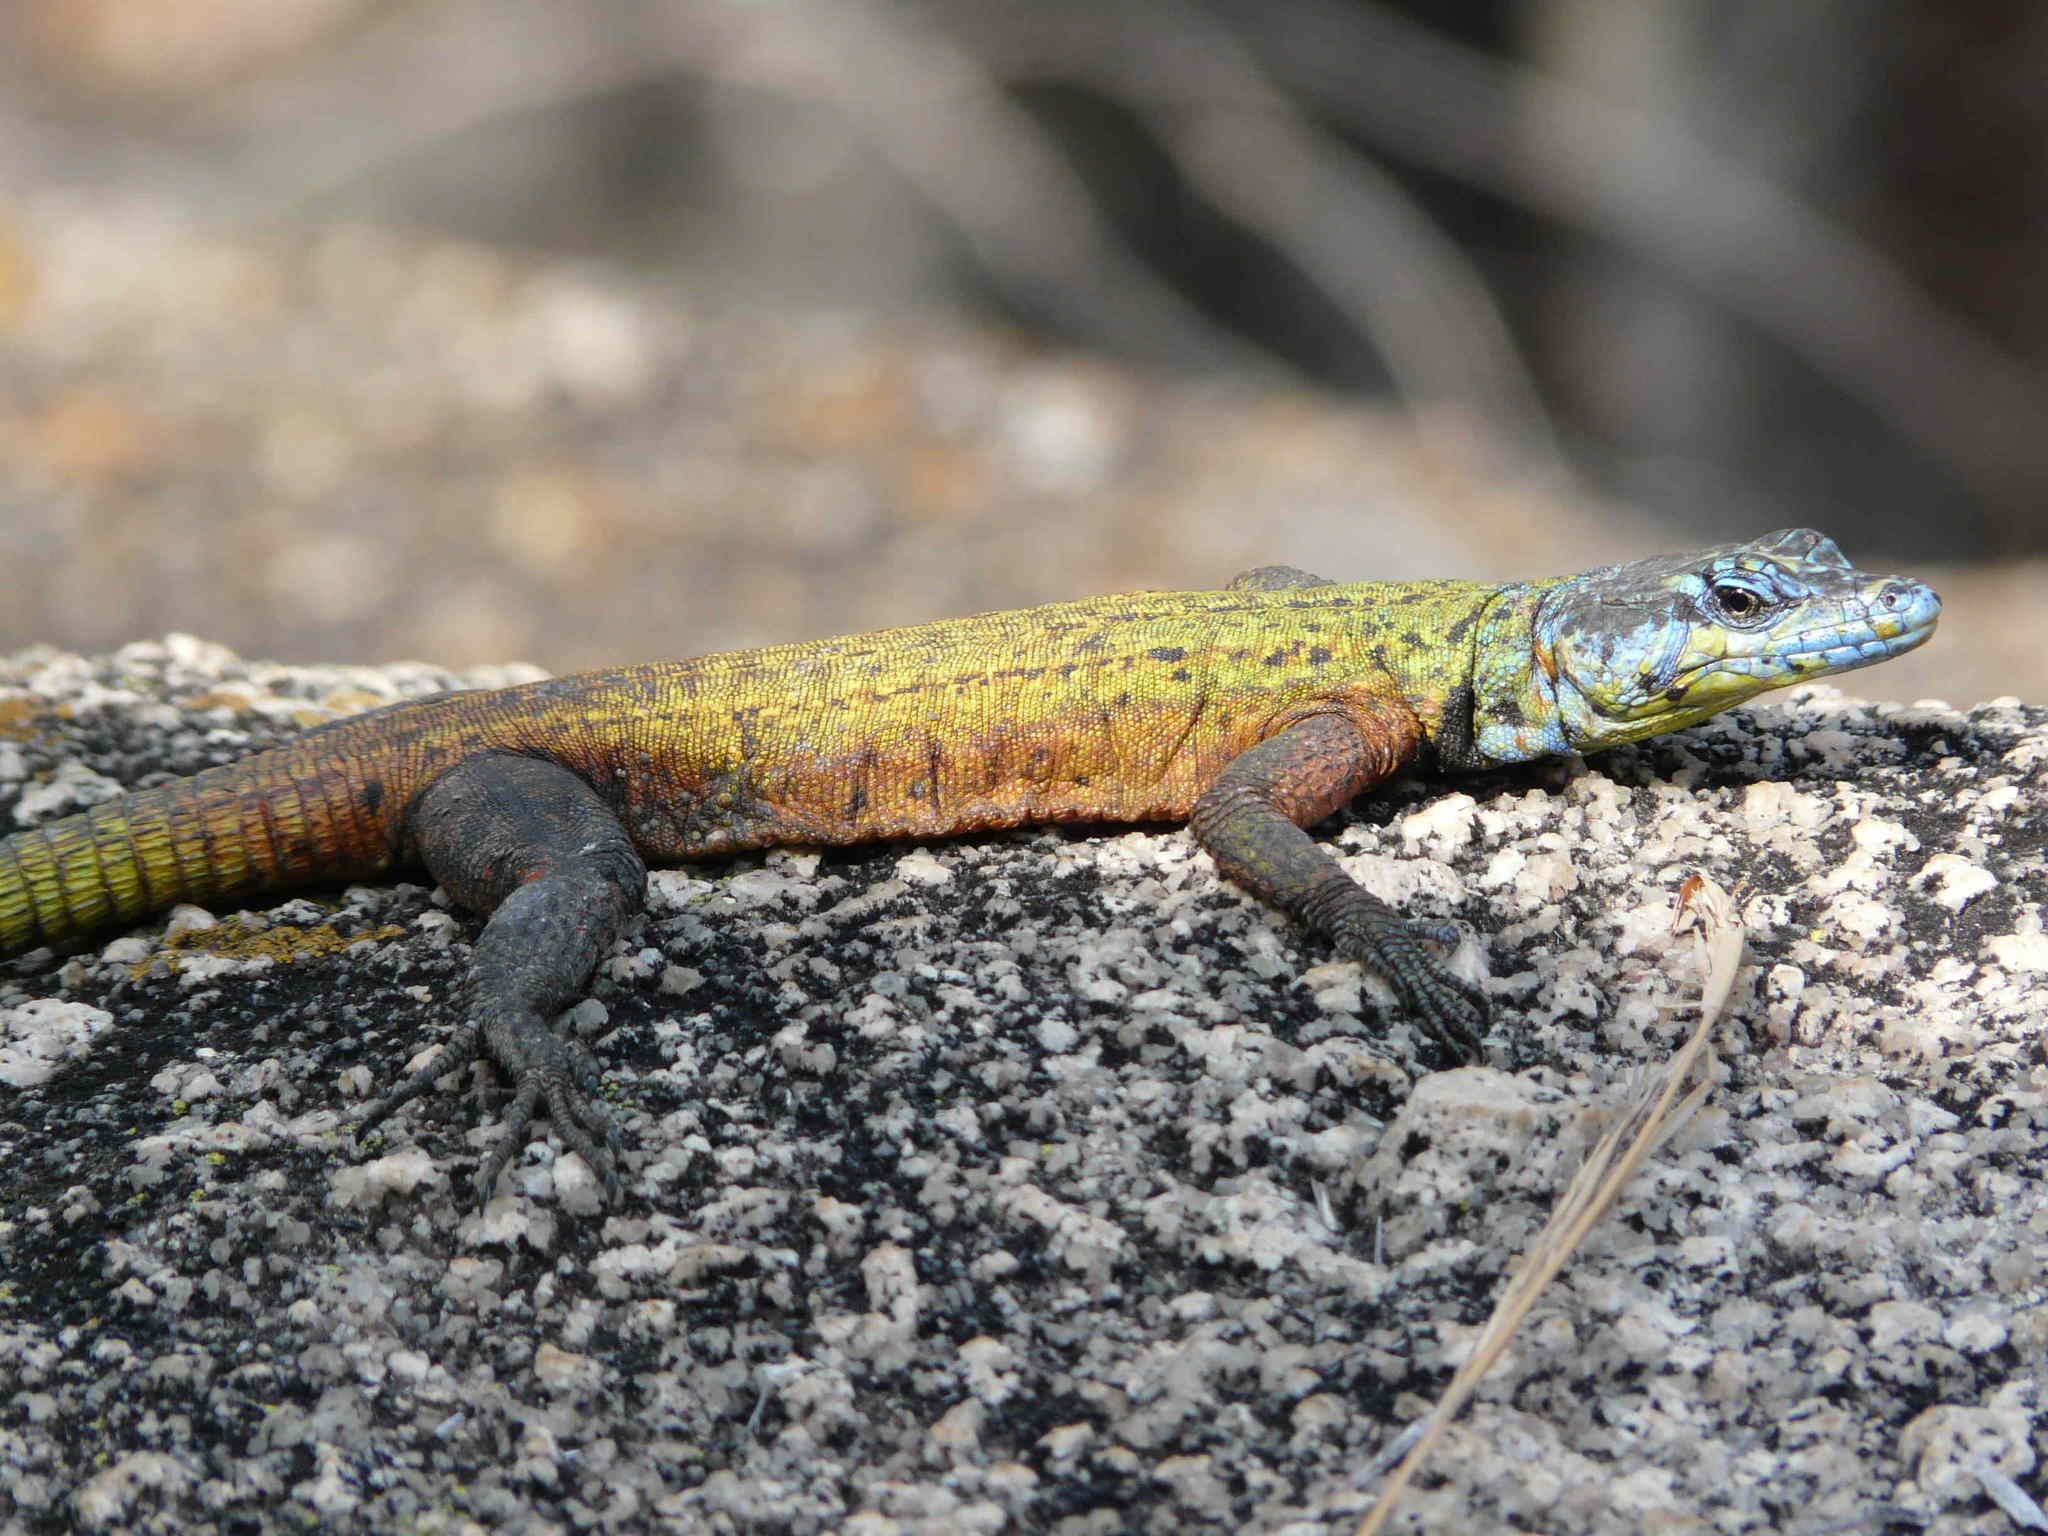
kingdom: Animalia
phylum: Chordata
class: Squamata
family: Cordylidae
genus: Platysaurus
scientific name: Platysaurus intermedius
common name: Common flat lizard
